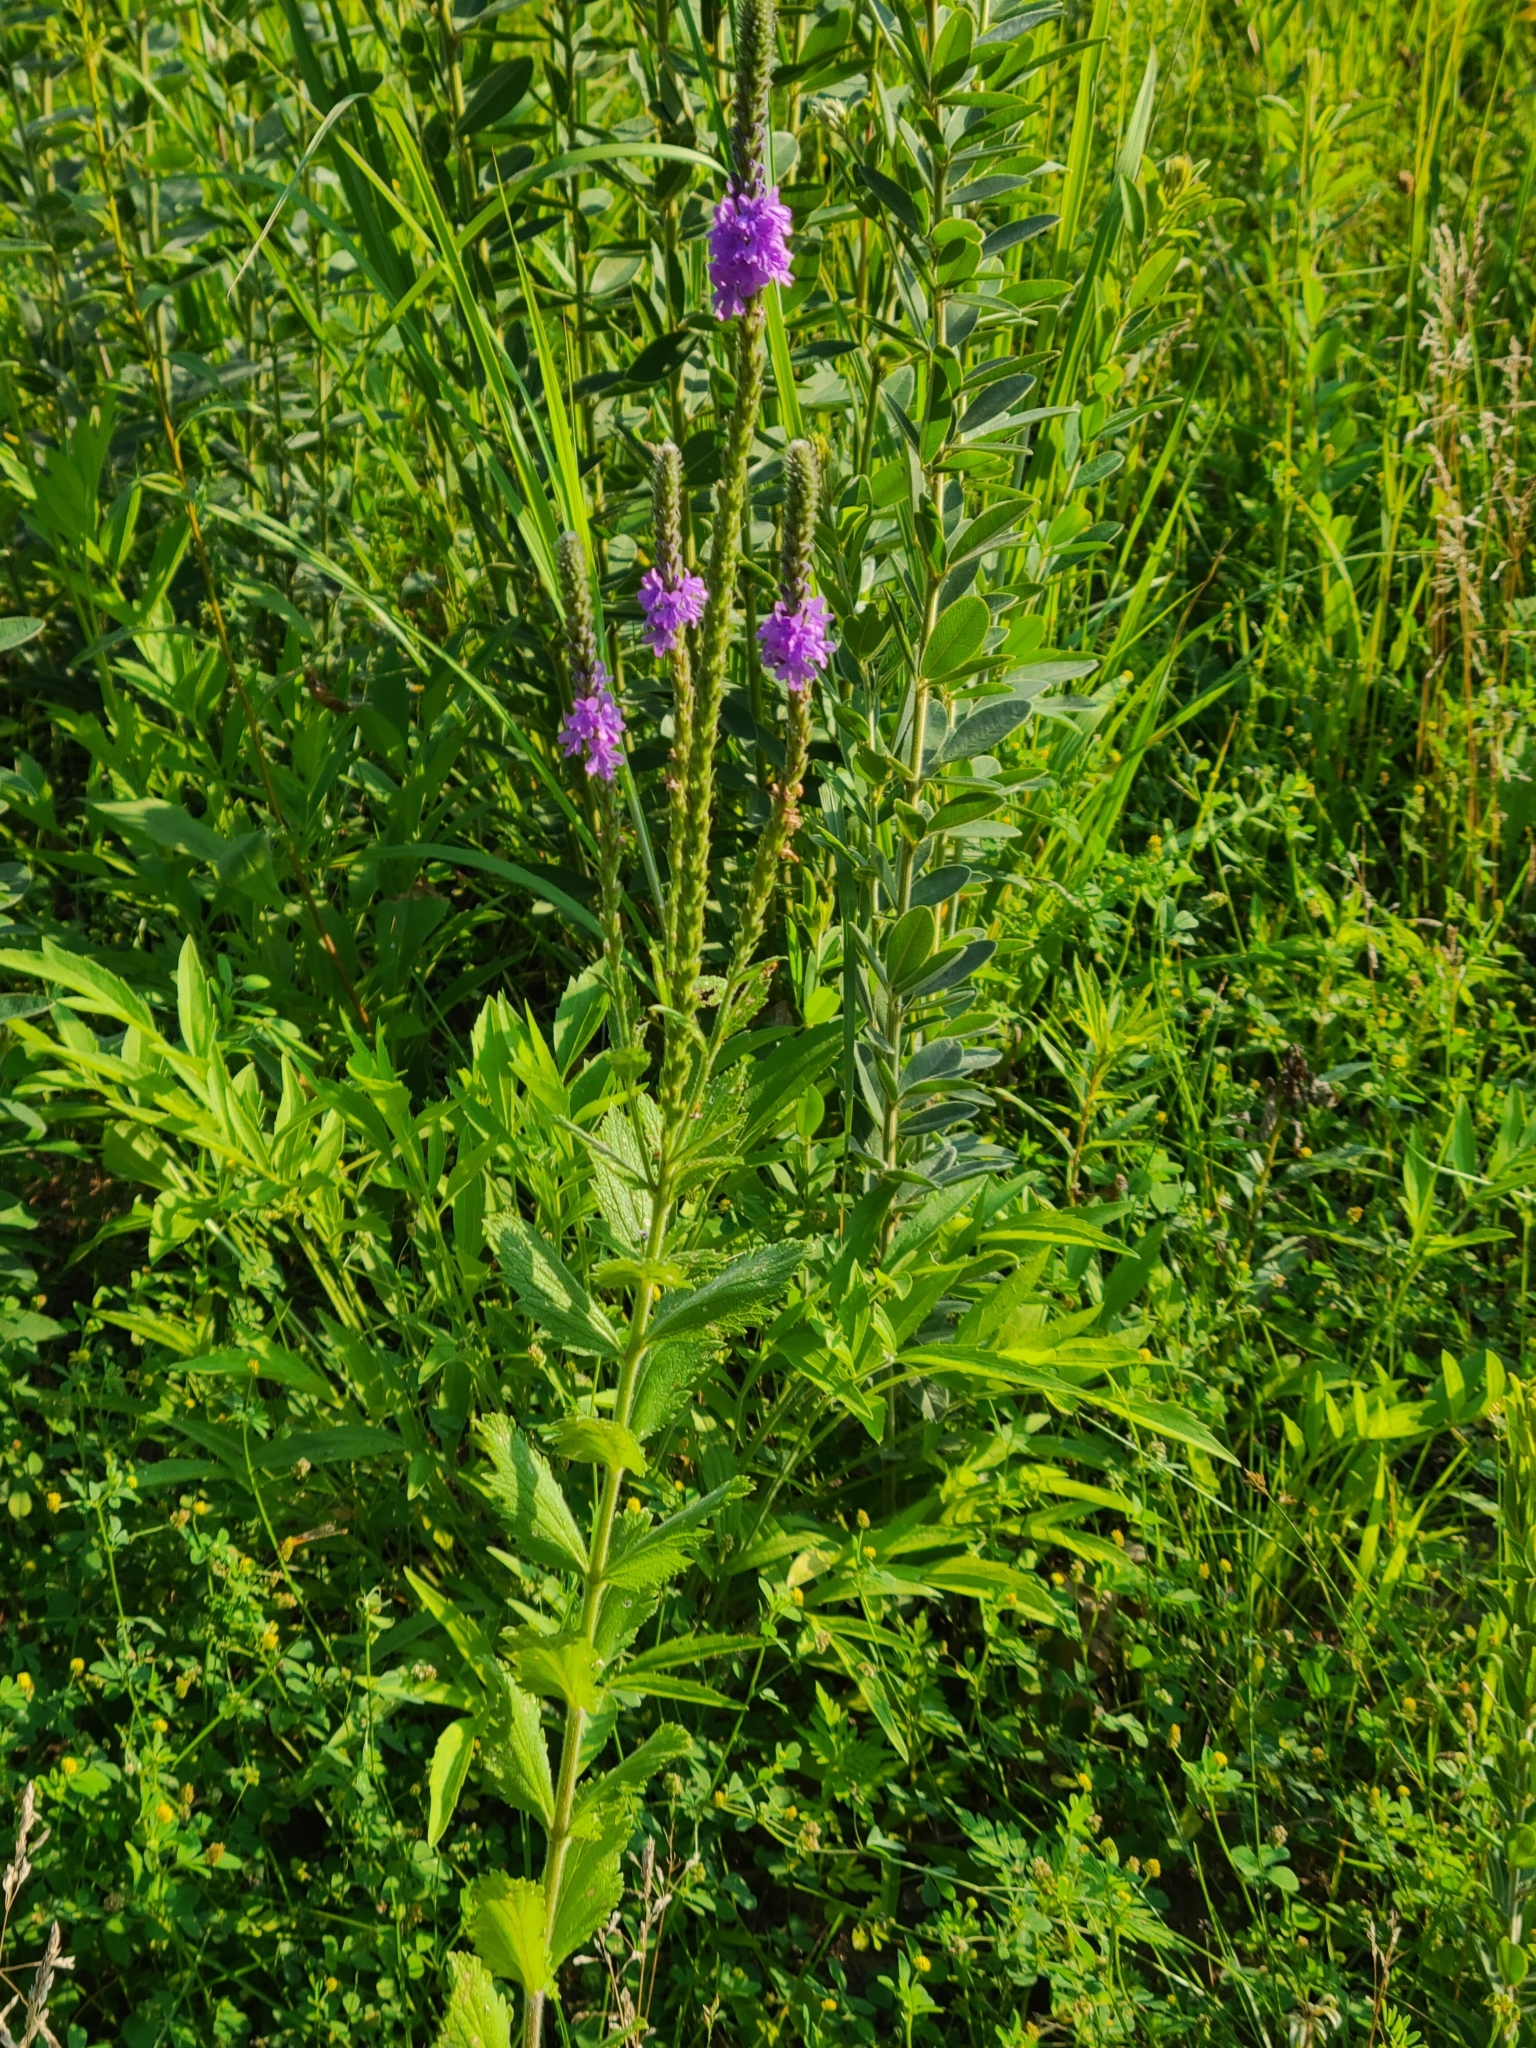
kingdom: Plantae
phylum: Tracheophyta
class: Magnoliopsida
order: Lamiales
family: Verbenaceae
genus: Verbena
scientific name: Verbena stricta
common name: Hoary vervain
